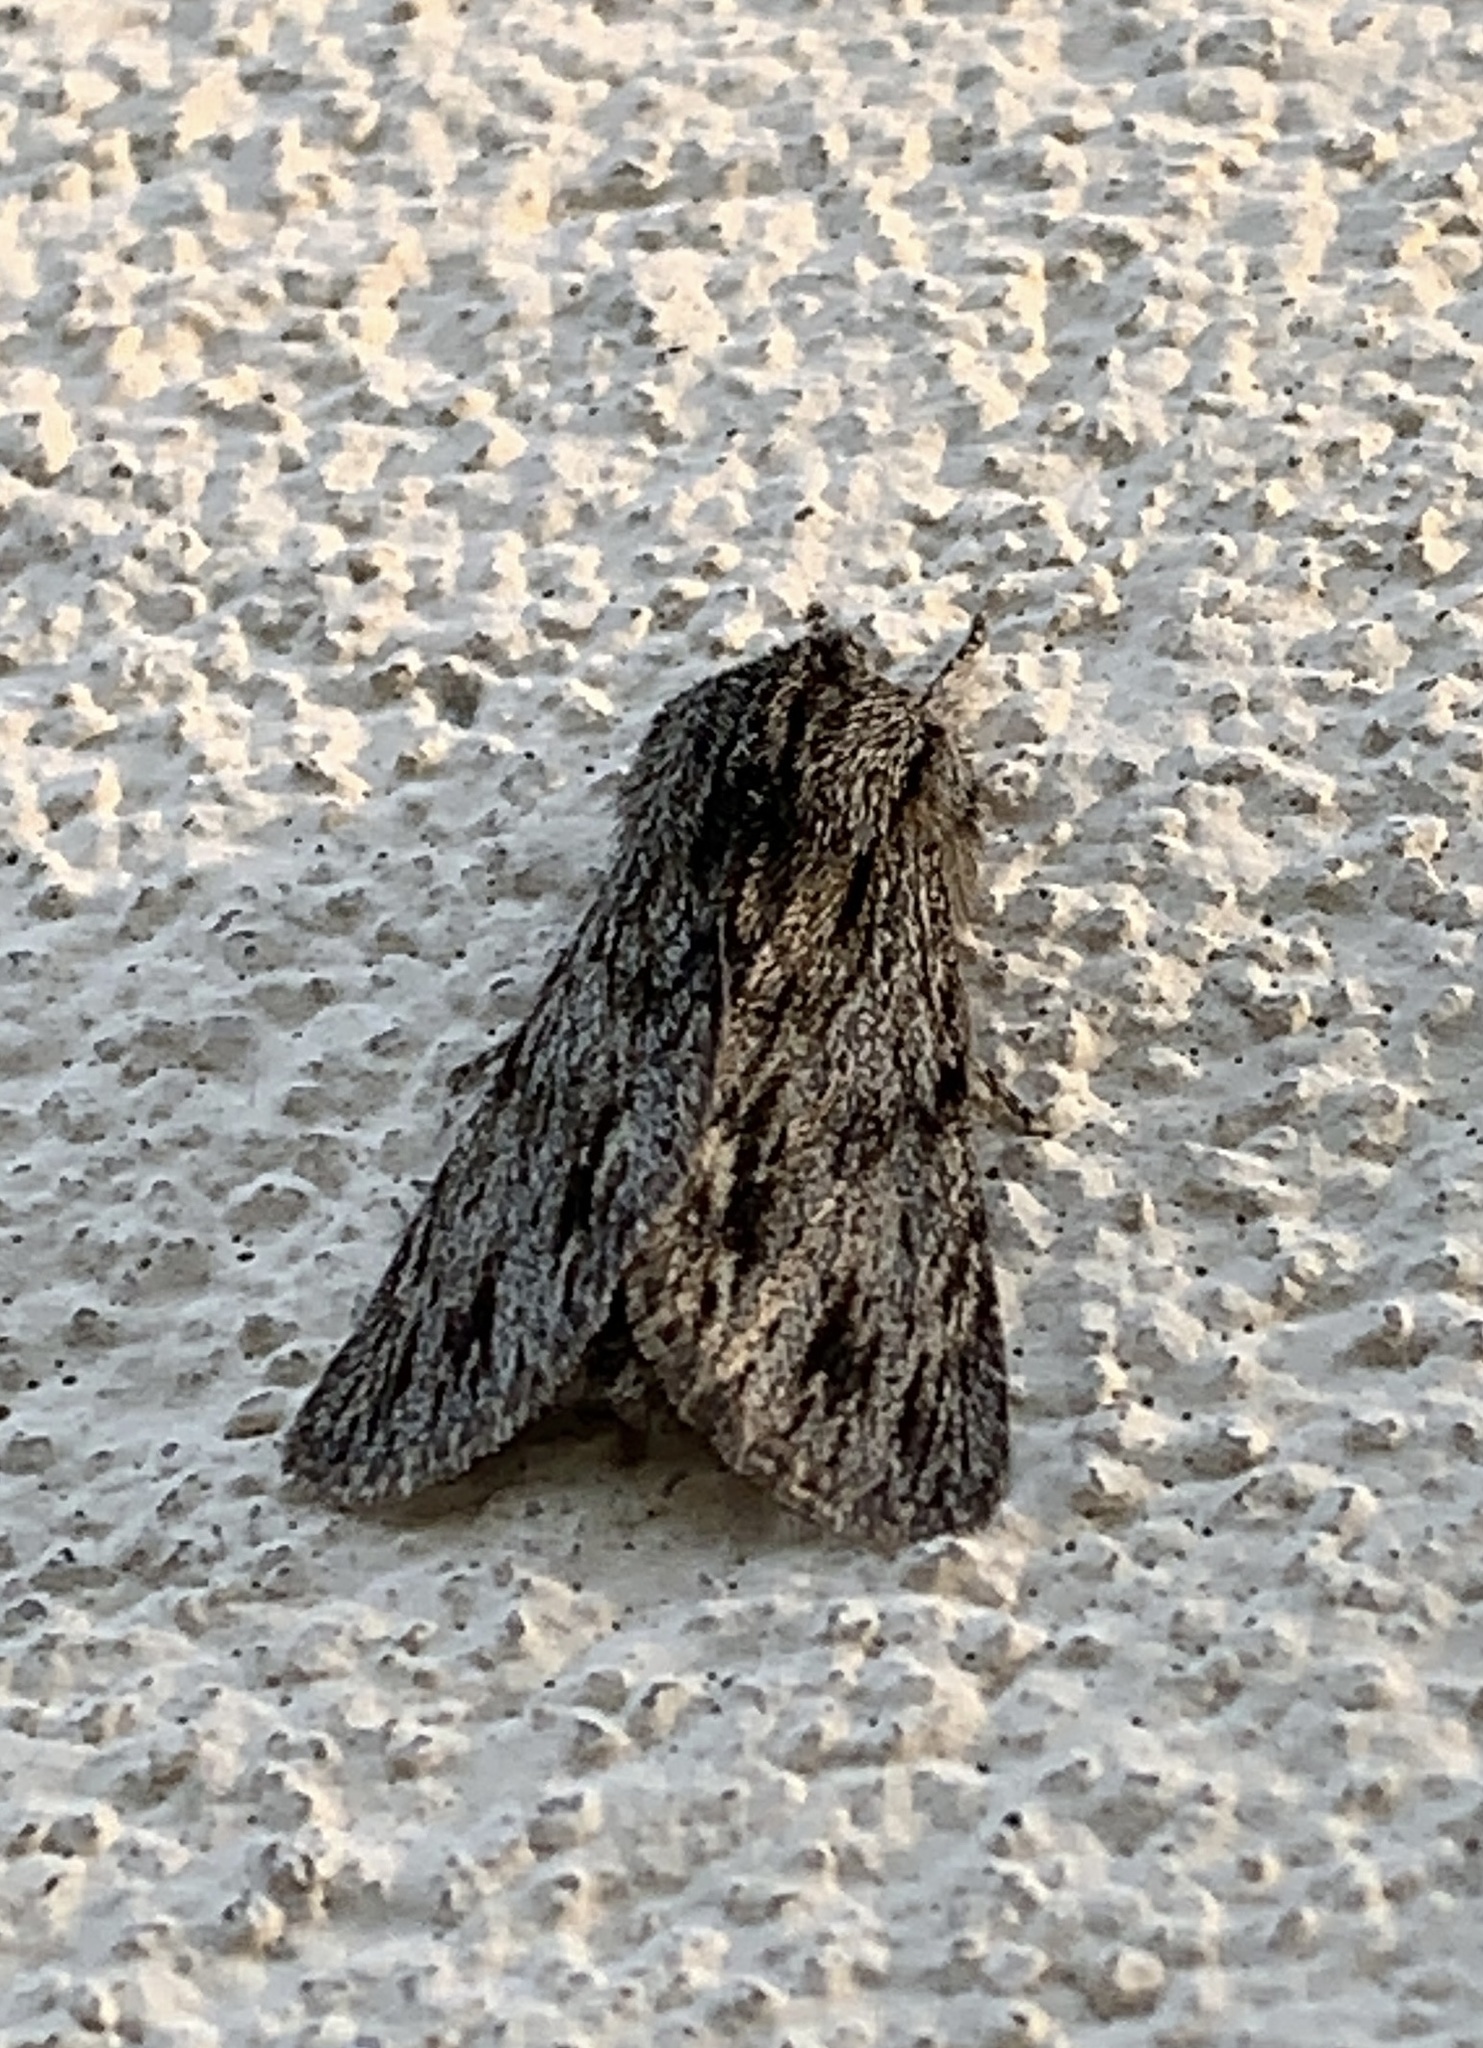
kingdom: Animalia
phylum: Arthropoda
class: Insecta
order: Lepidoptera
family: Noctuidae
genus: Asteroscopus
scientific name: Asteroscopus sphinx
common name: The sprawler
